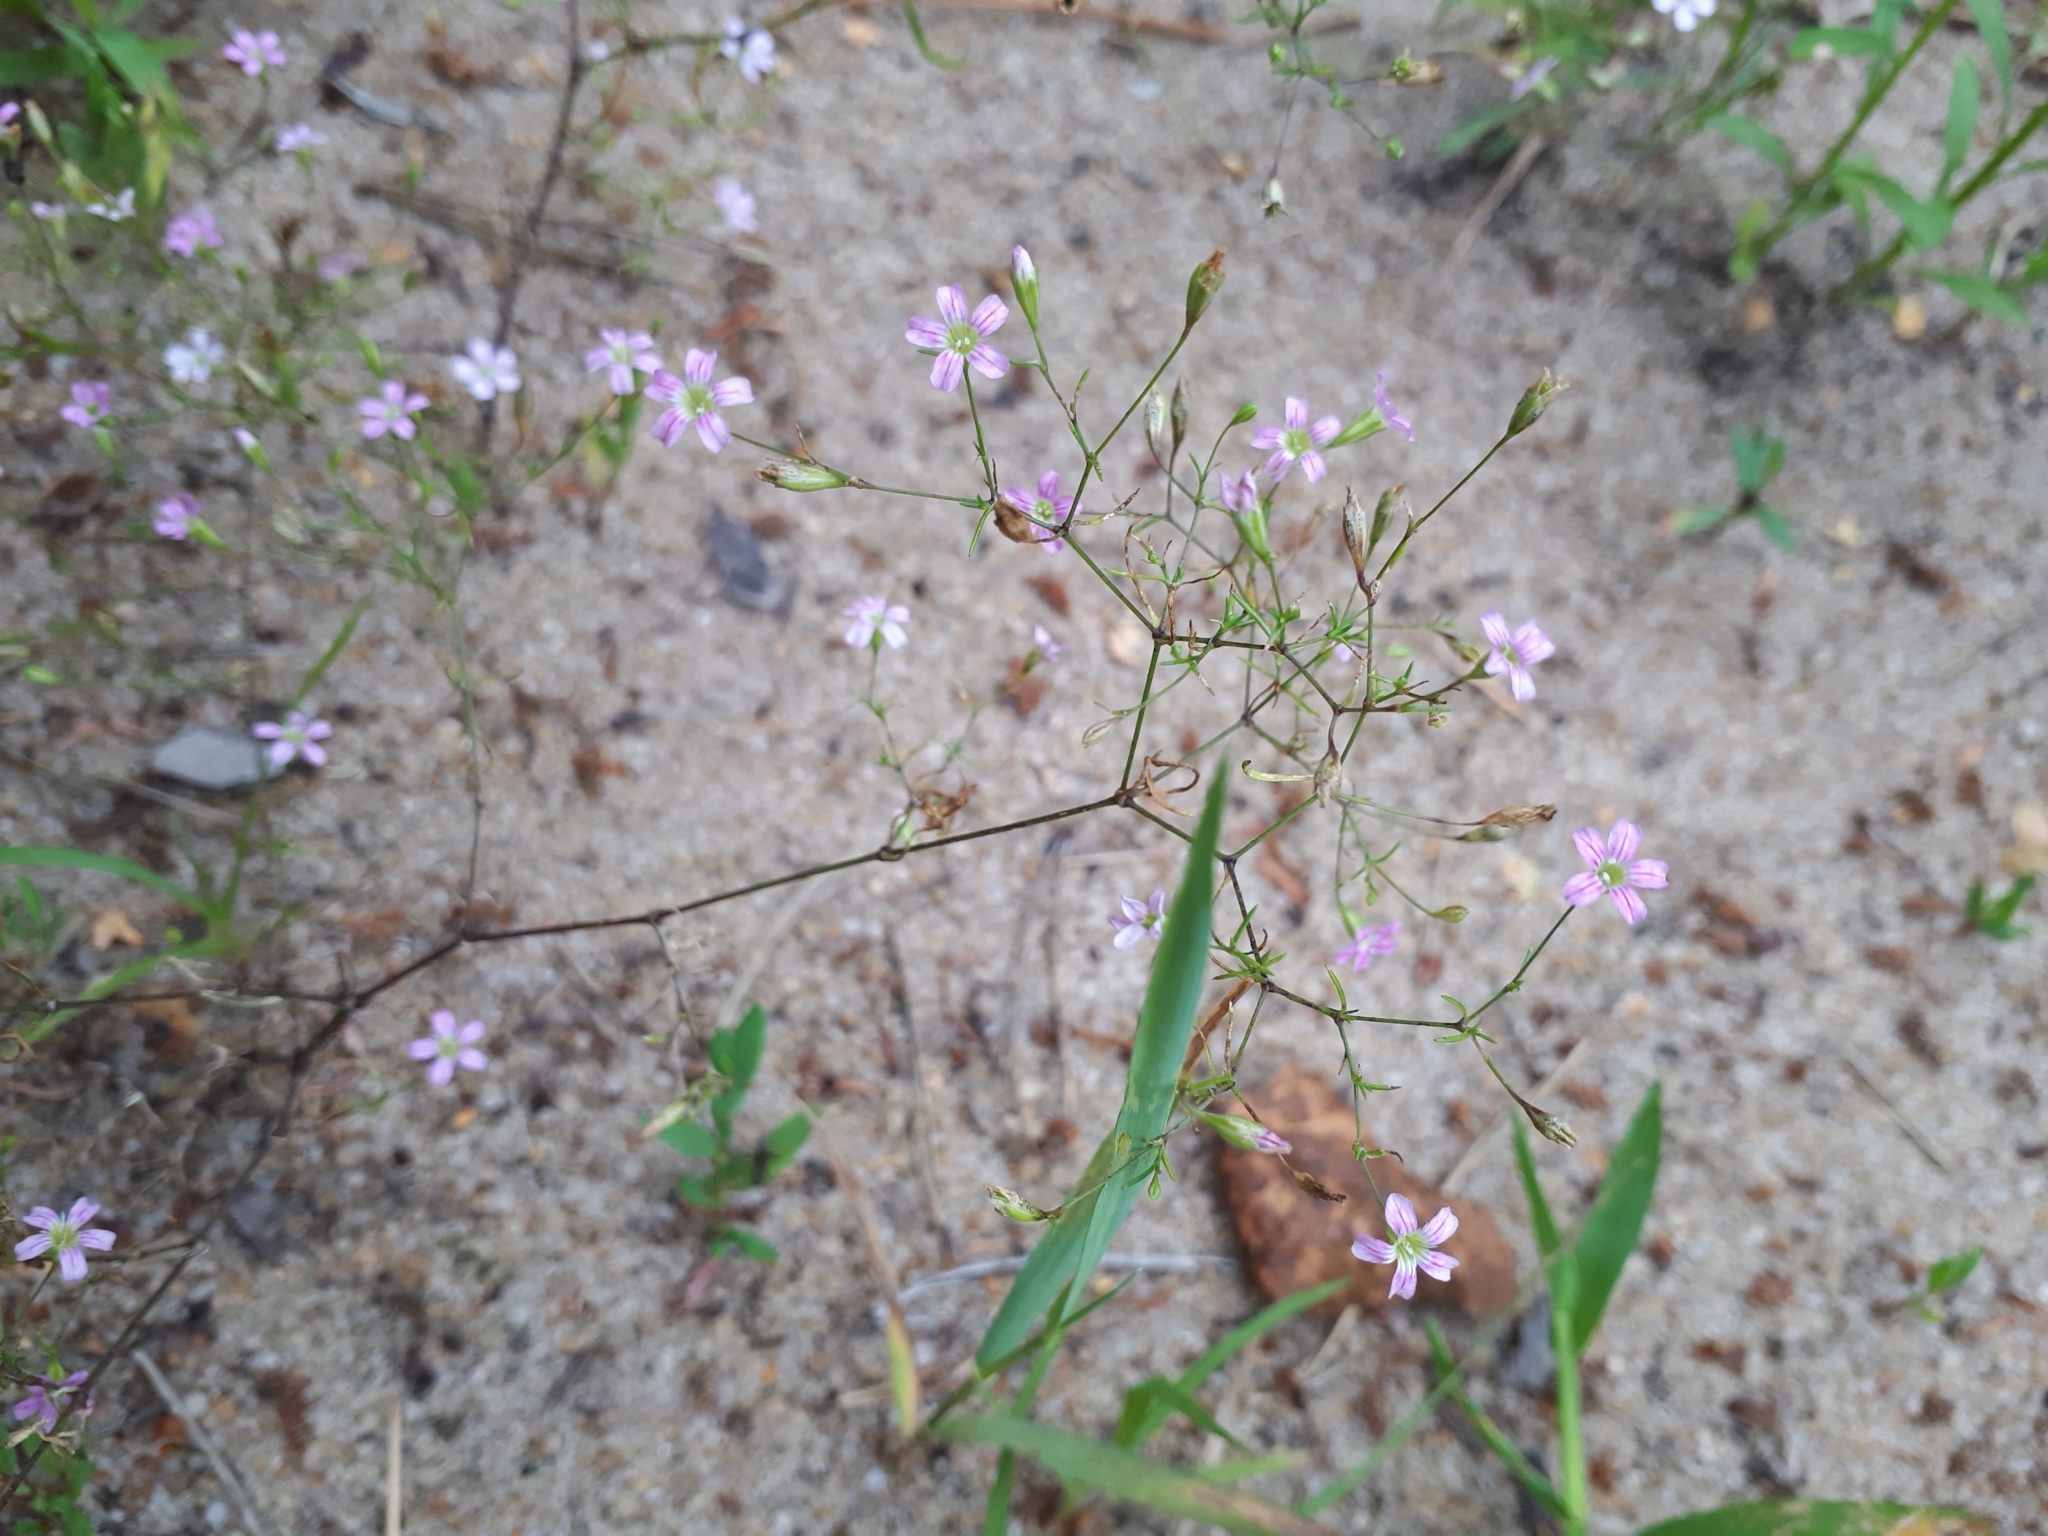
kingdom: Plantae
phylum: Tracheophyta
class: Magnoliopsida
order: Caryophyllales
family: Caryophyllaceae
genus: Psammophiliella
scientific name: Psammophiliella muralis
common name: Cushion baby's-breath
